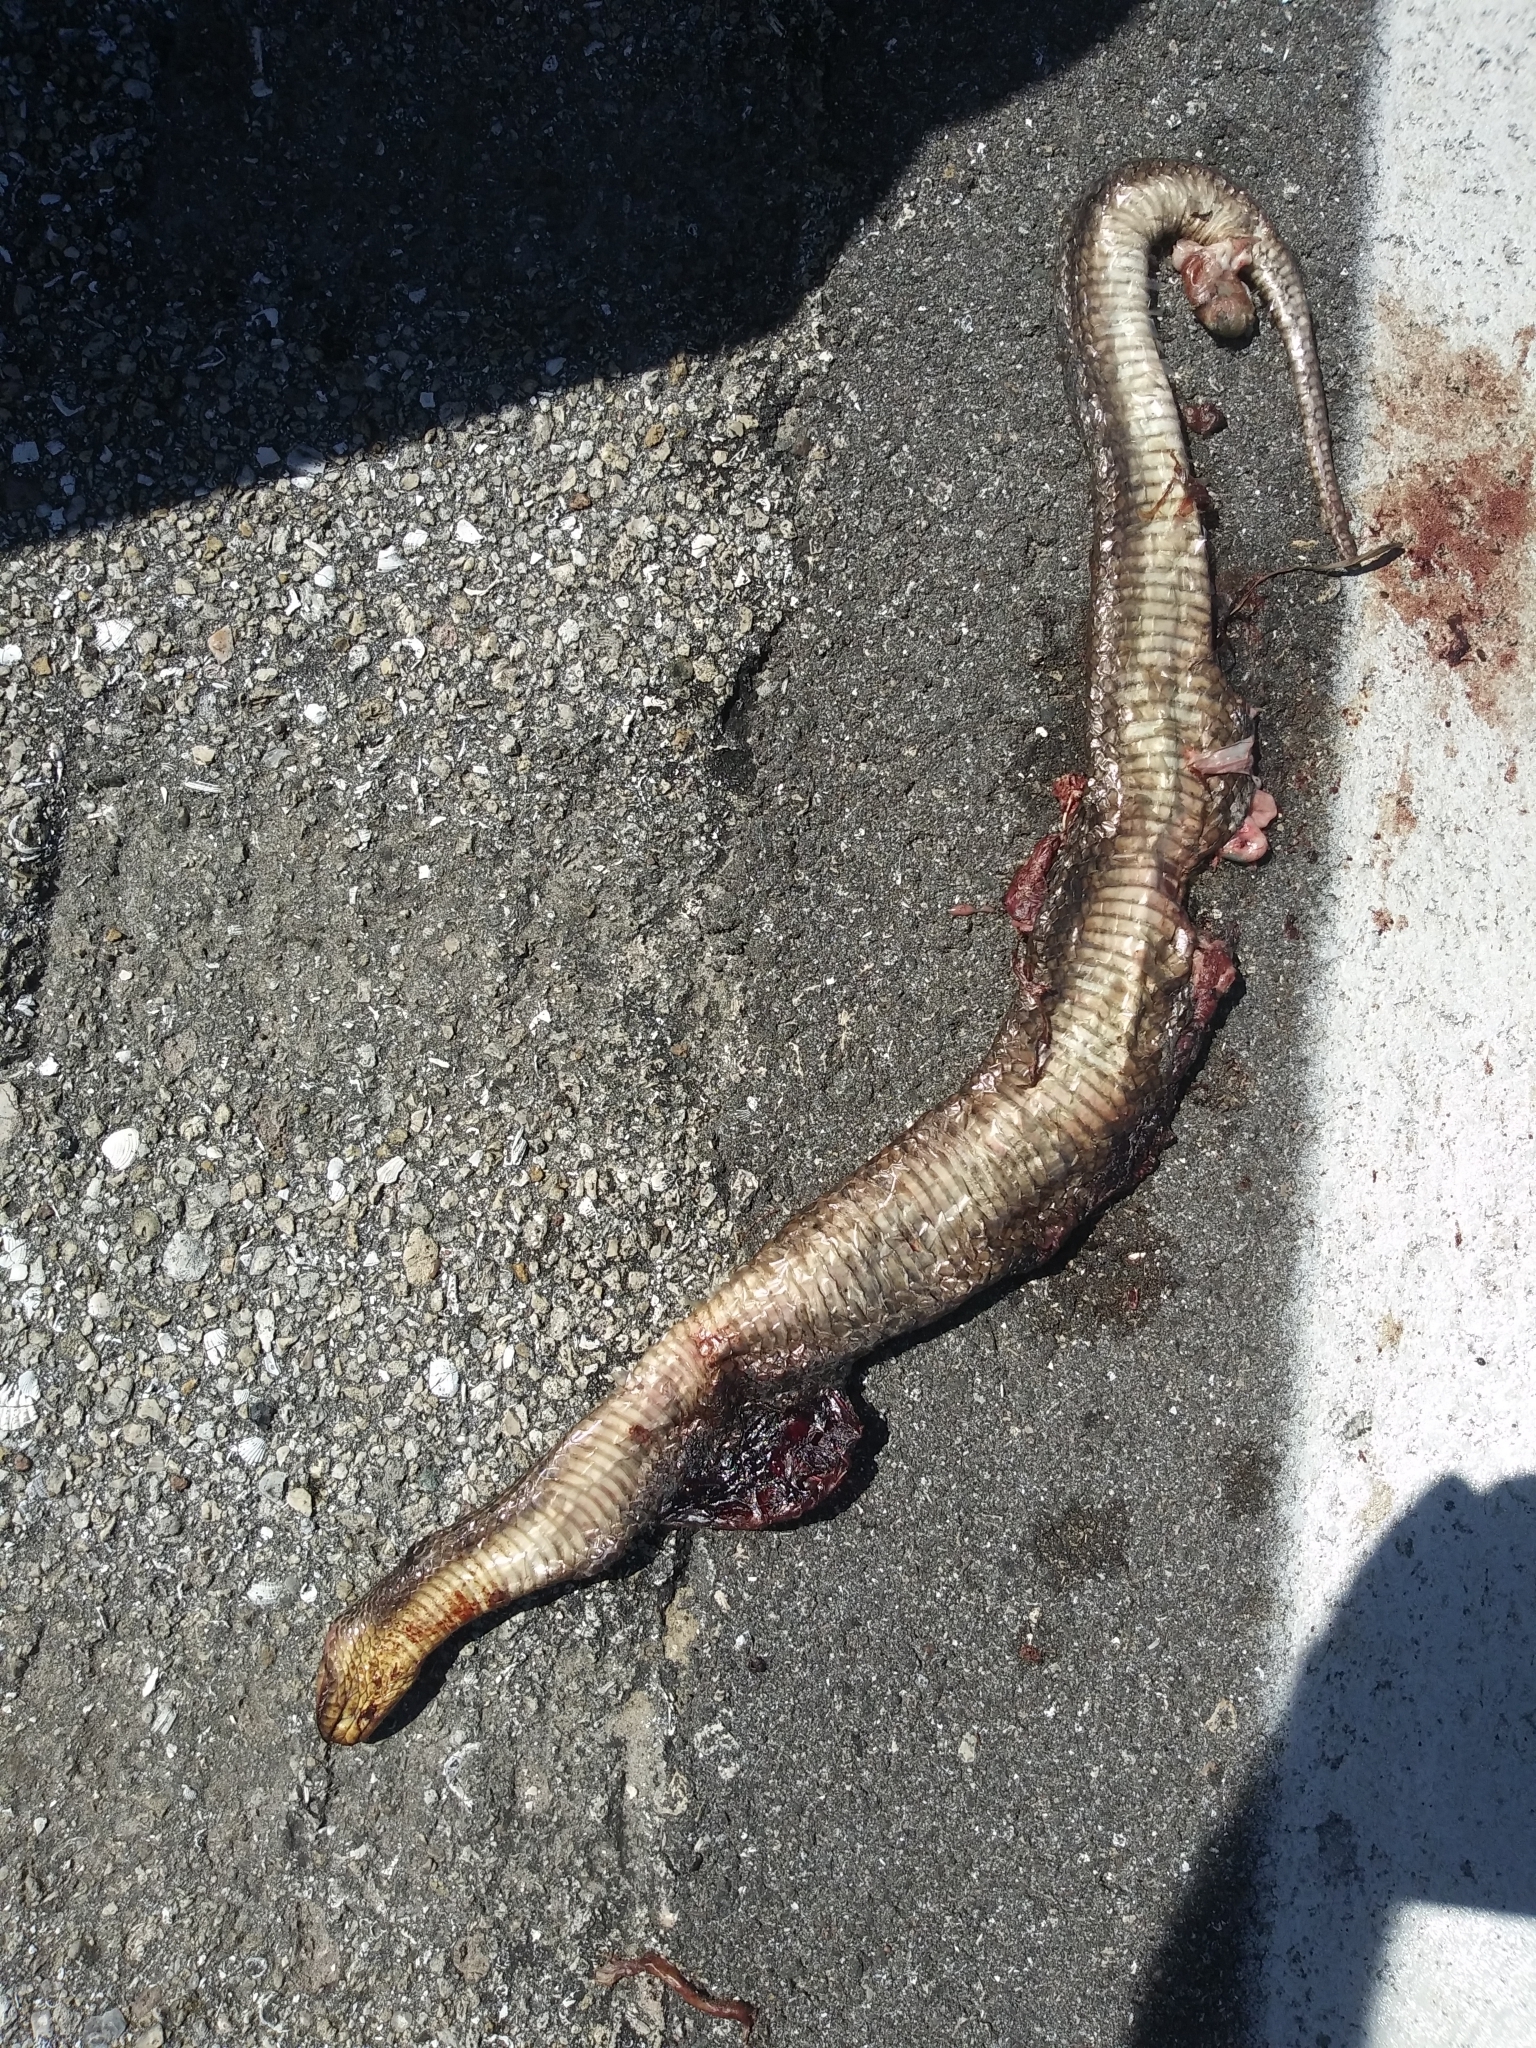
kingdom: Animalia
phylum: Chordata
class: Squamata
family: Colubridae
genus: Nerodia
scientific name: Nerodia floridana
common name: Florida green watersnake
